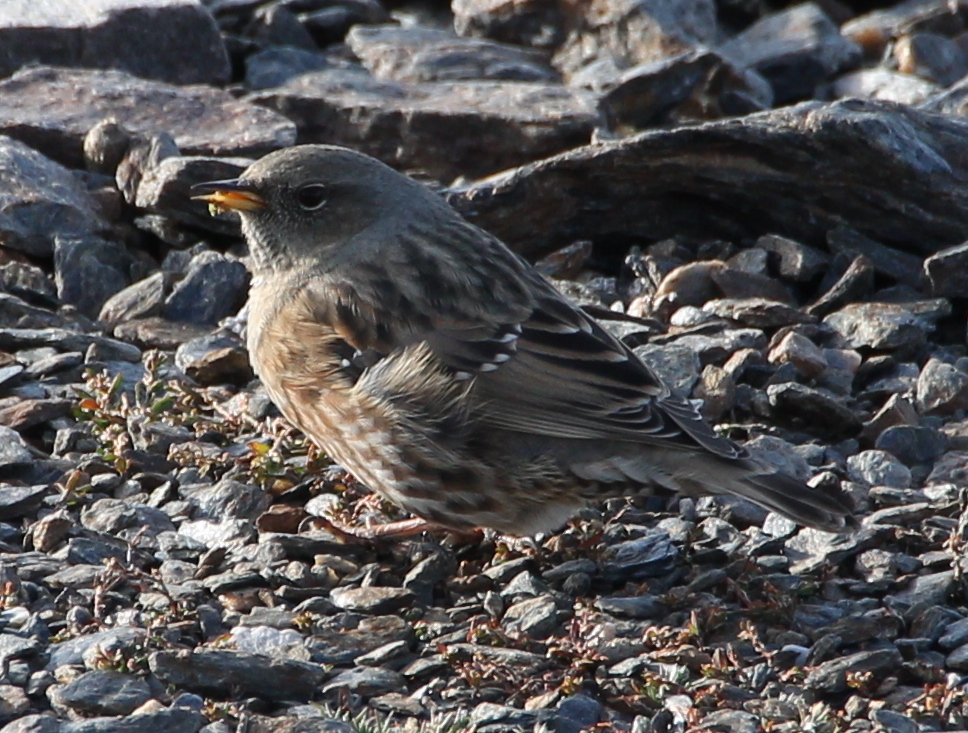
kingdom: Animalia
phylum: Chordata
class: Aves
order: Passeriformes
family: Prunellidae
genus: Prunella
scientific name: Prunella collaris
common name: Alpine accentor
